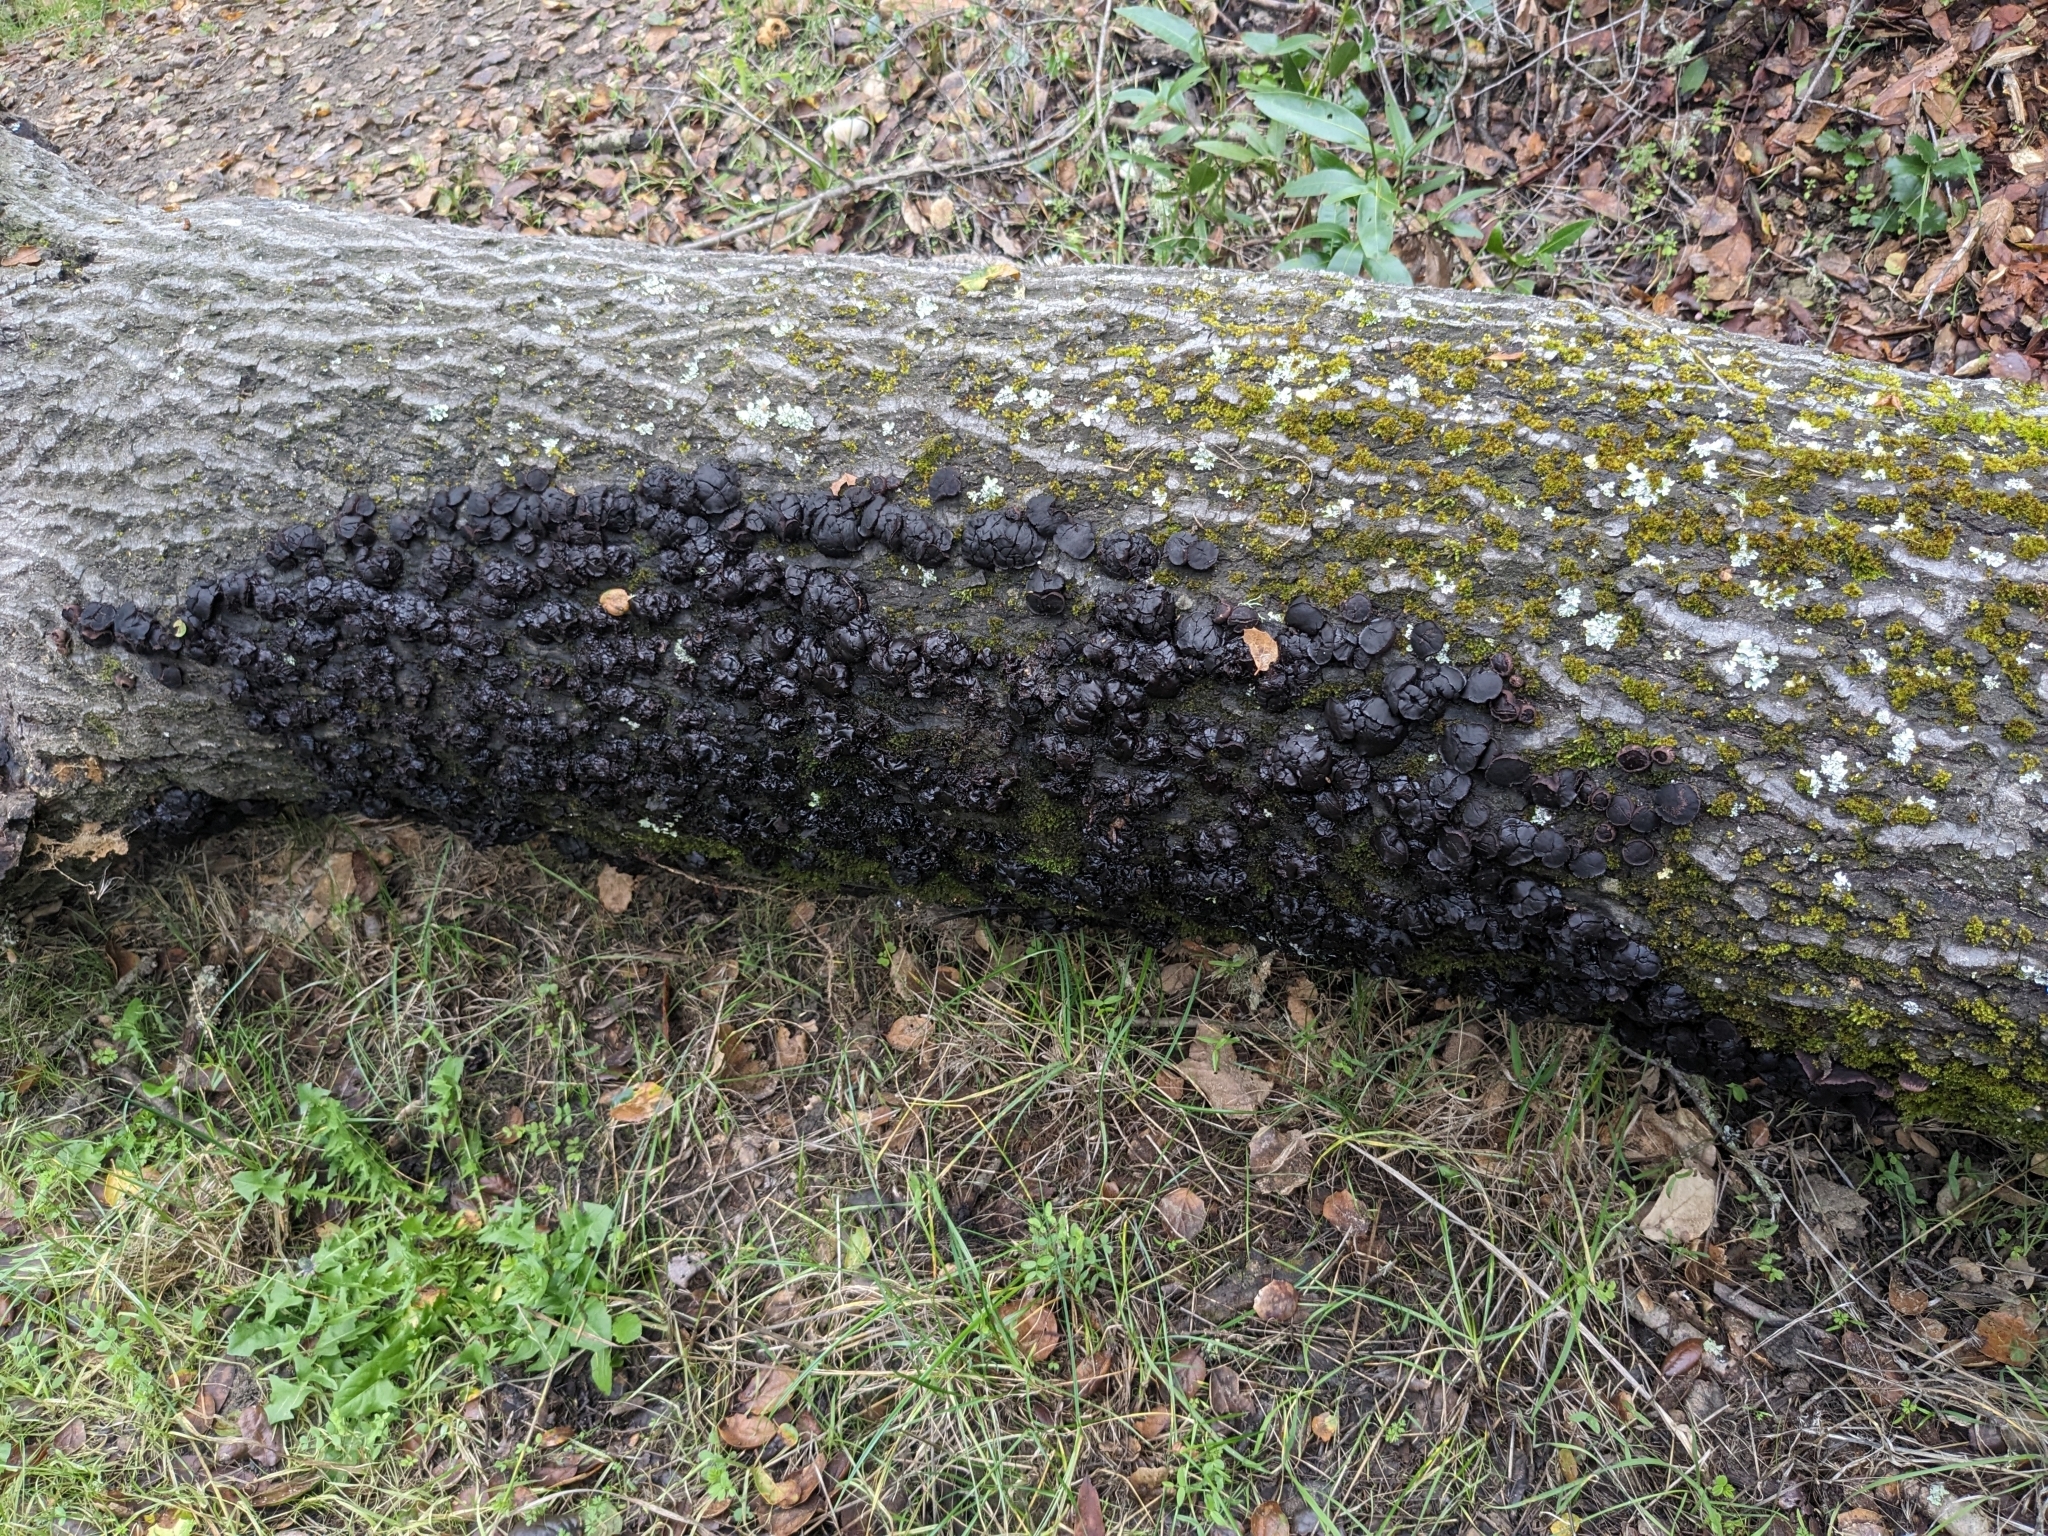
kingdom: Fungi
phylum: Ascomycota
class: Leotiomycetes
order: Phacidiales
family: Phacidiaceae
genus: Bulgaria
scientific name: Bulgaria inquinans
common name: Black bulgar
